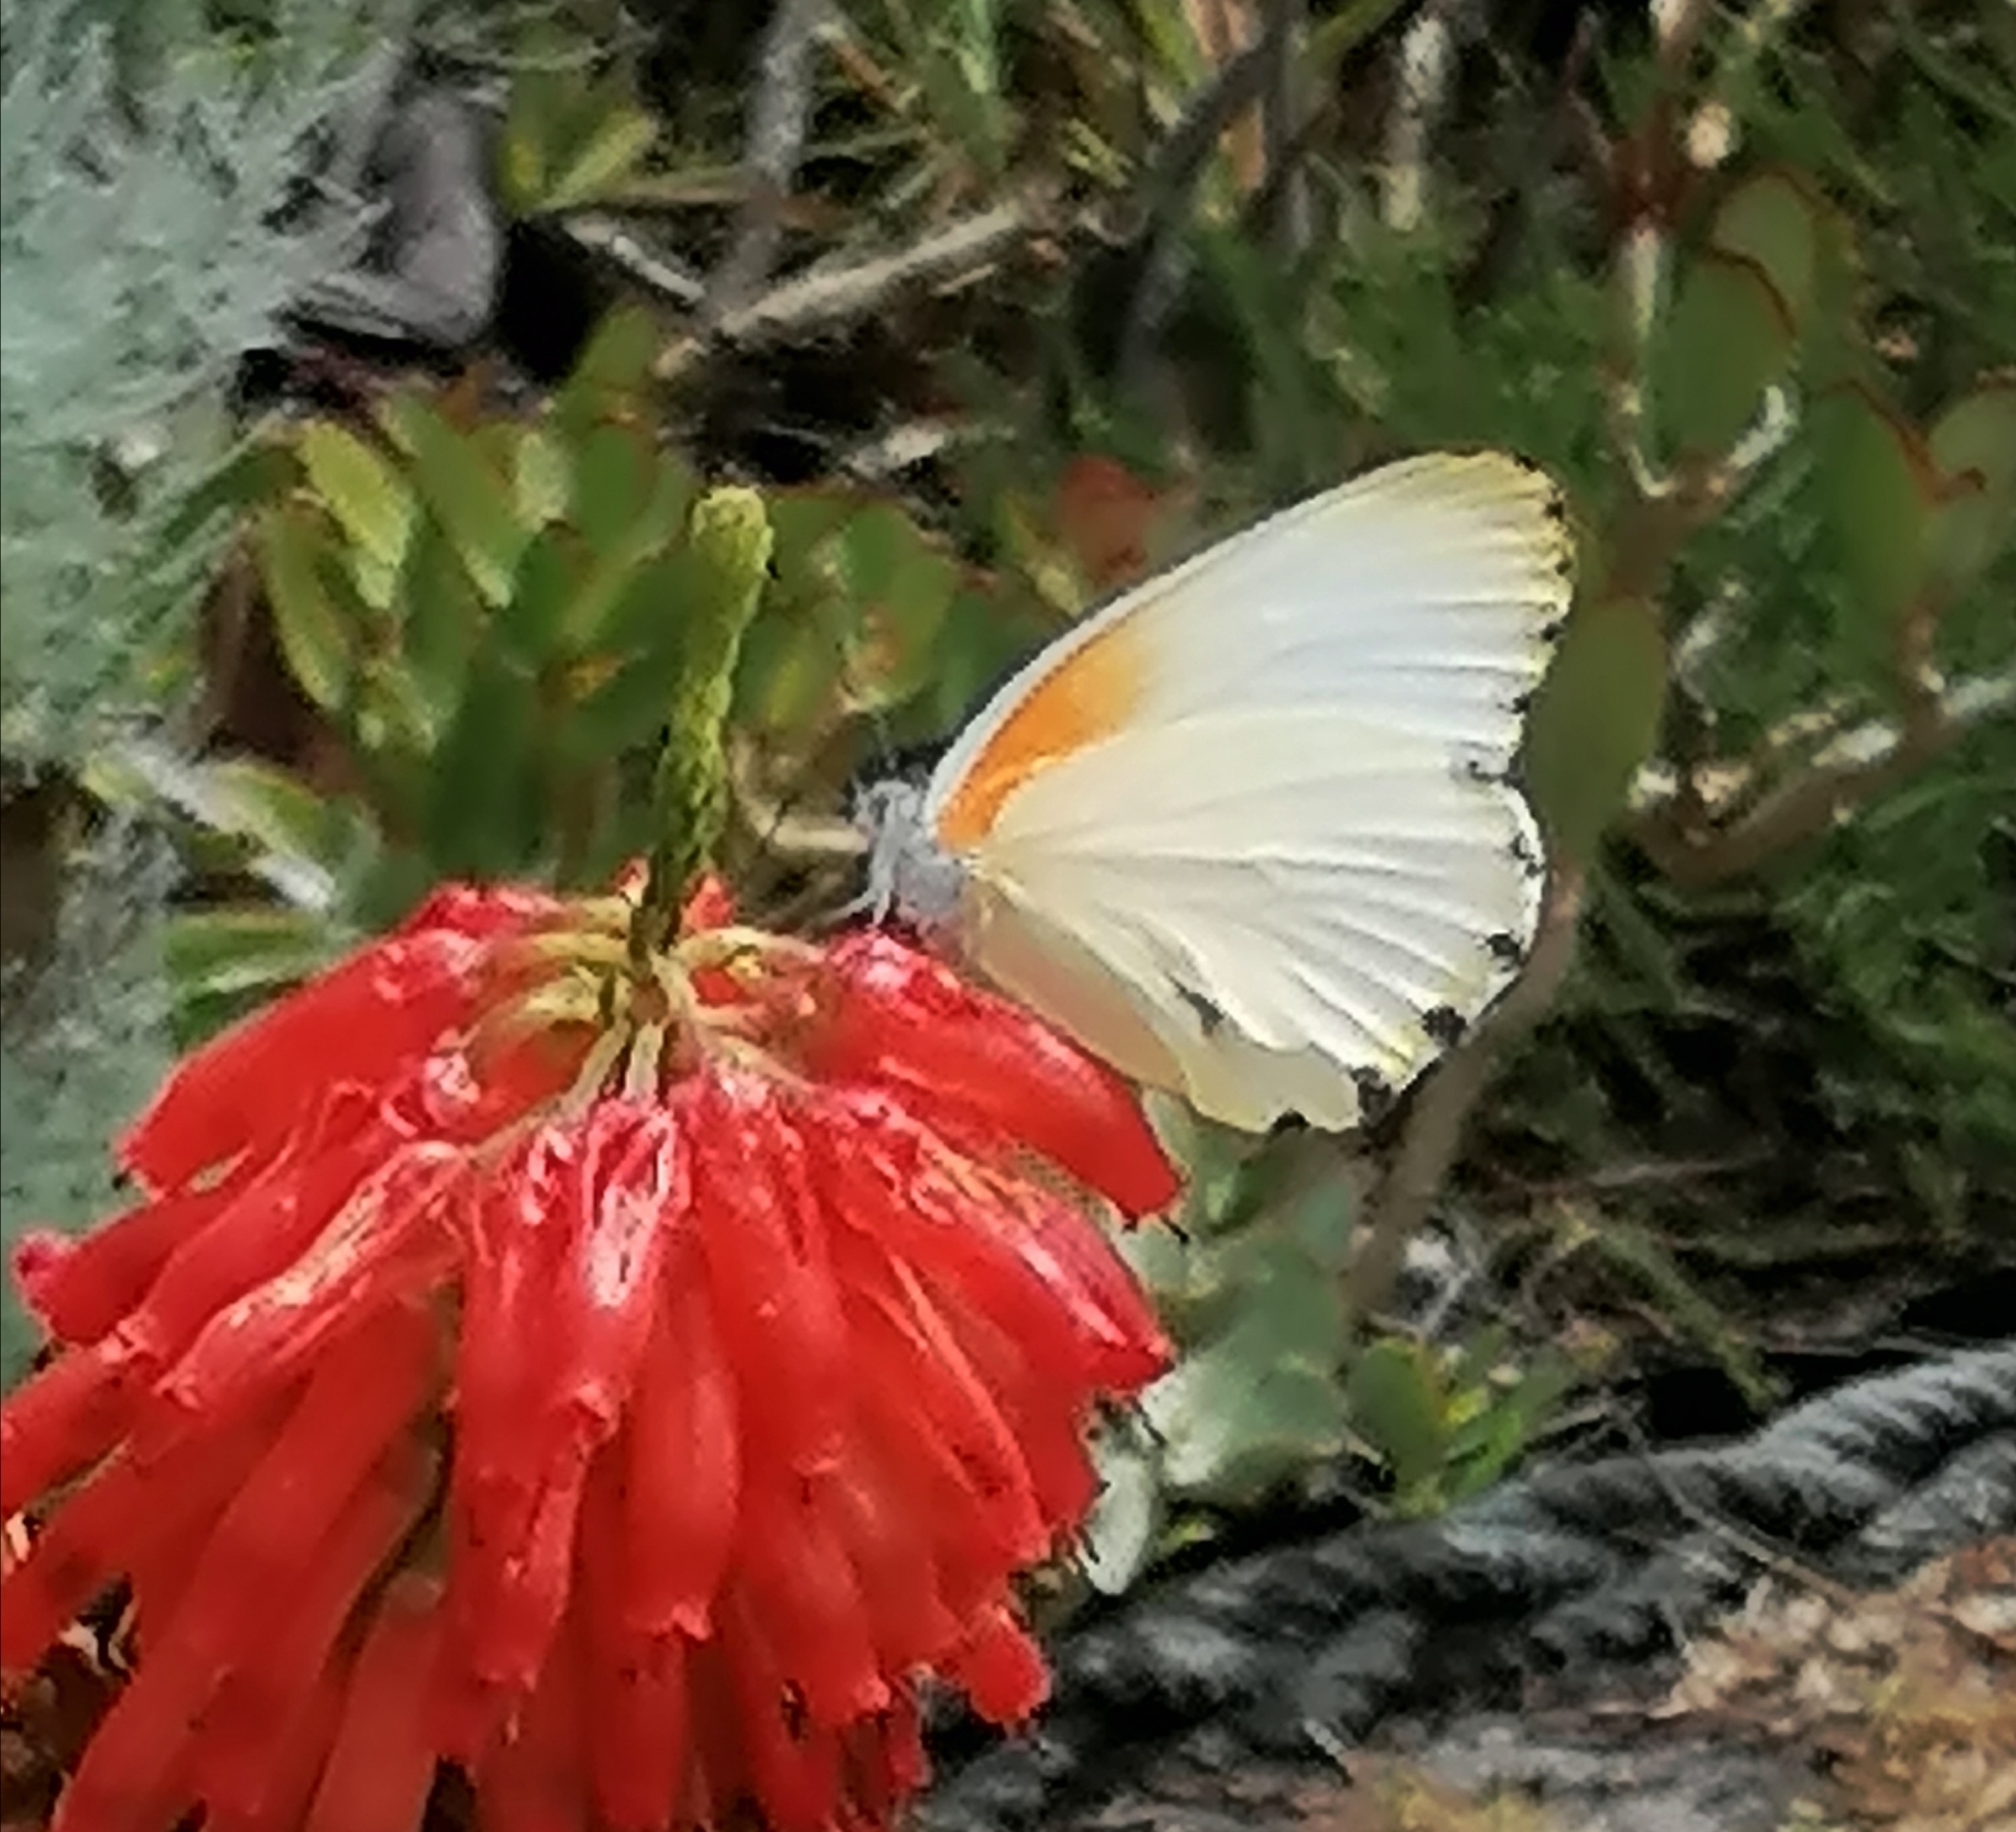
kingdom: Animalia
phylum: Arthropoda
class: Insecta
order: Lepidoptera
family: Pieridae
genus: Mylothris
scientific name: Mylothris agathina
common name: Eastern dotted border
